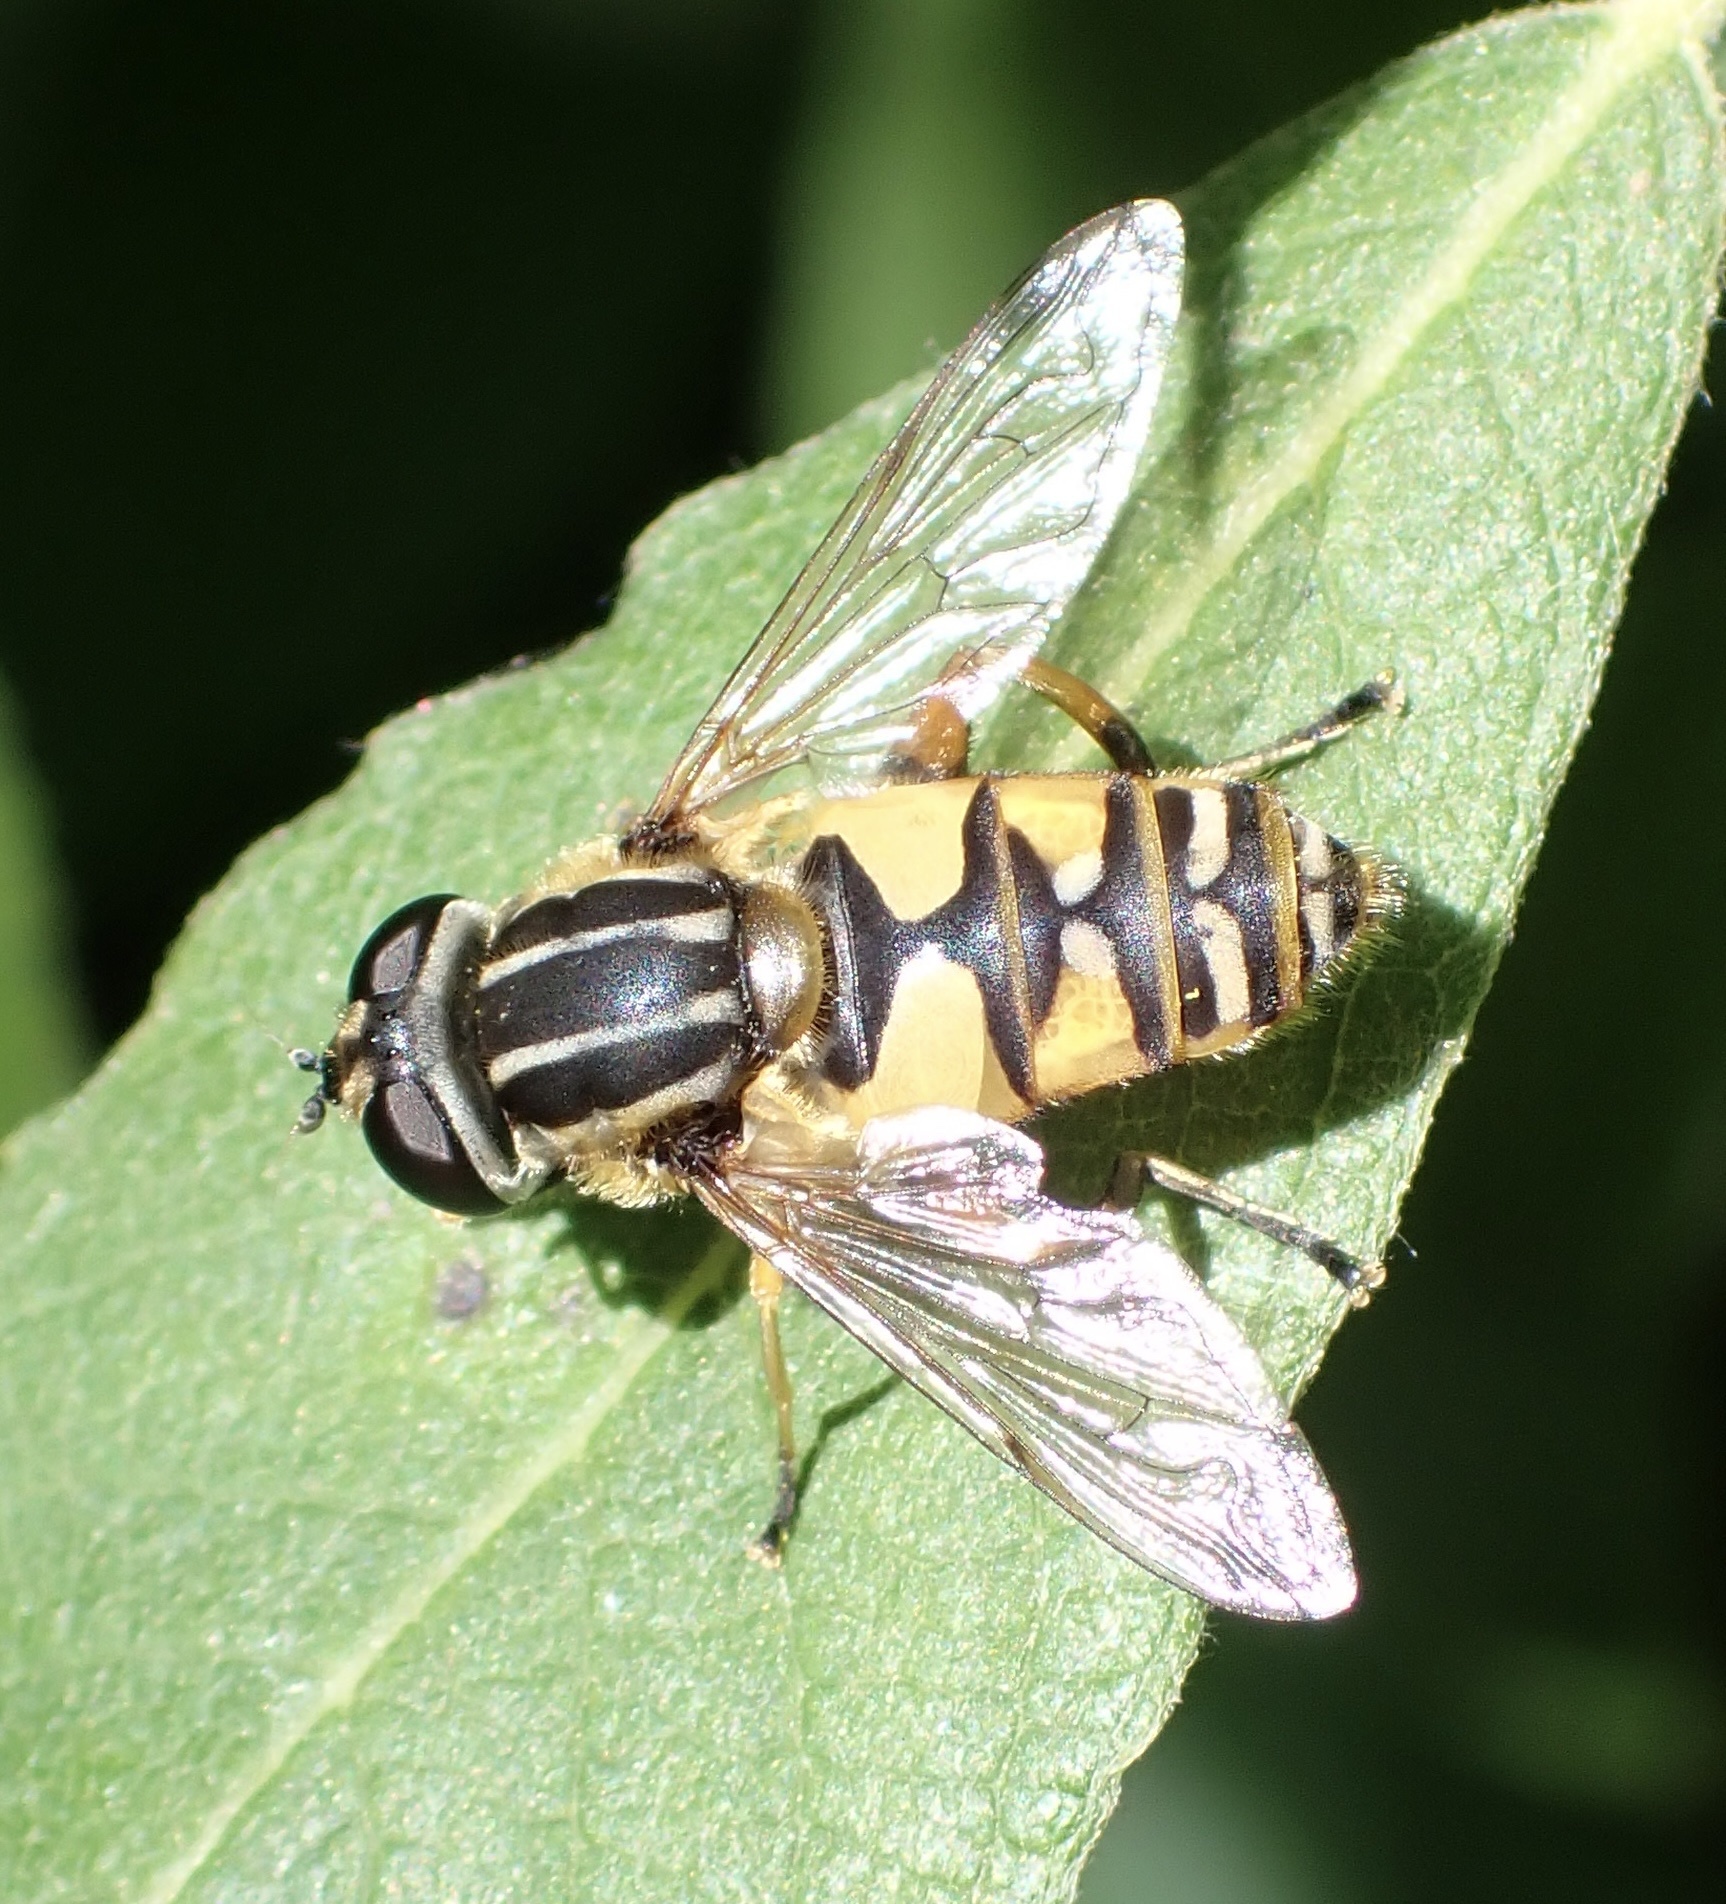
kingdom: Animalia
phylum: Arthropoda
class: Insecta
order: Diptera
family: Syrphidae
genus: Helophilus
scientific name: Helophilus pendulus
